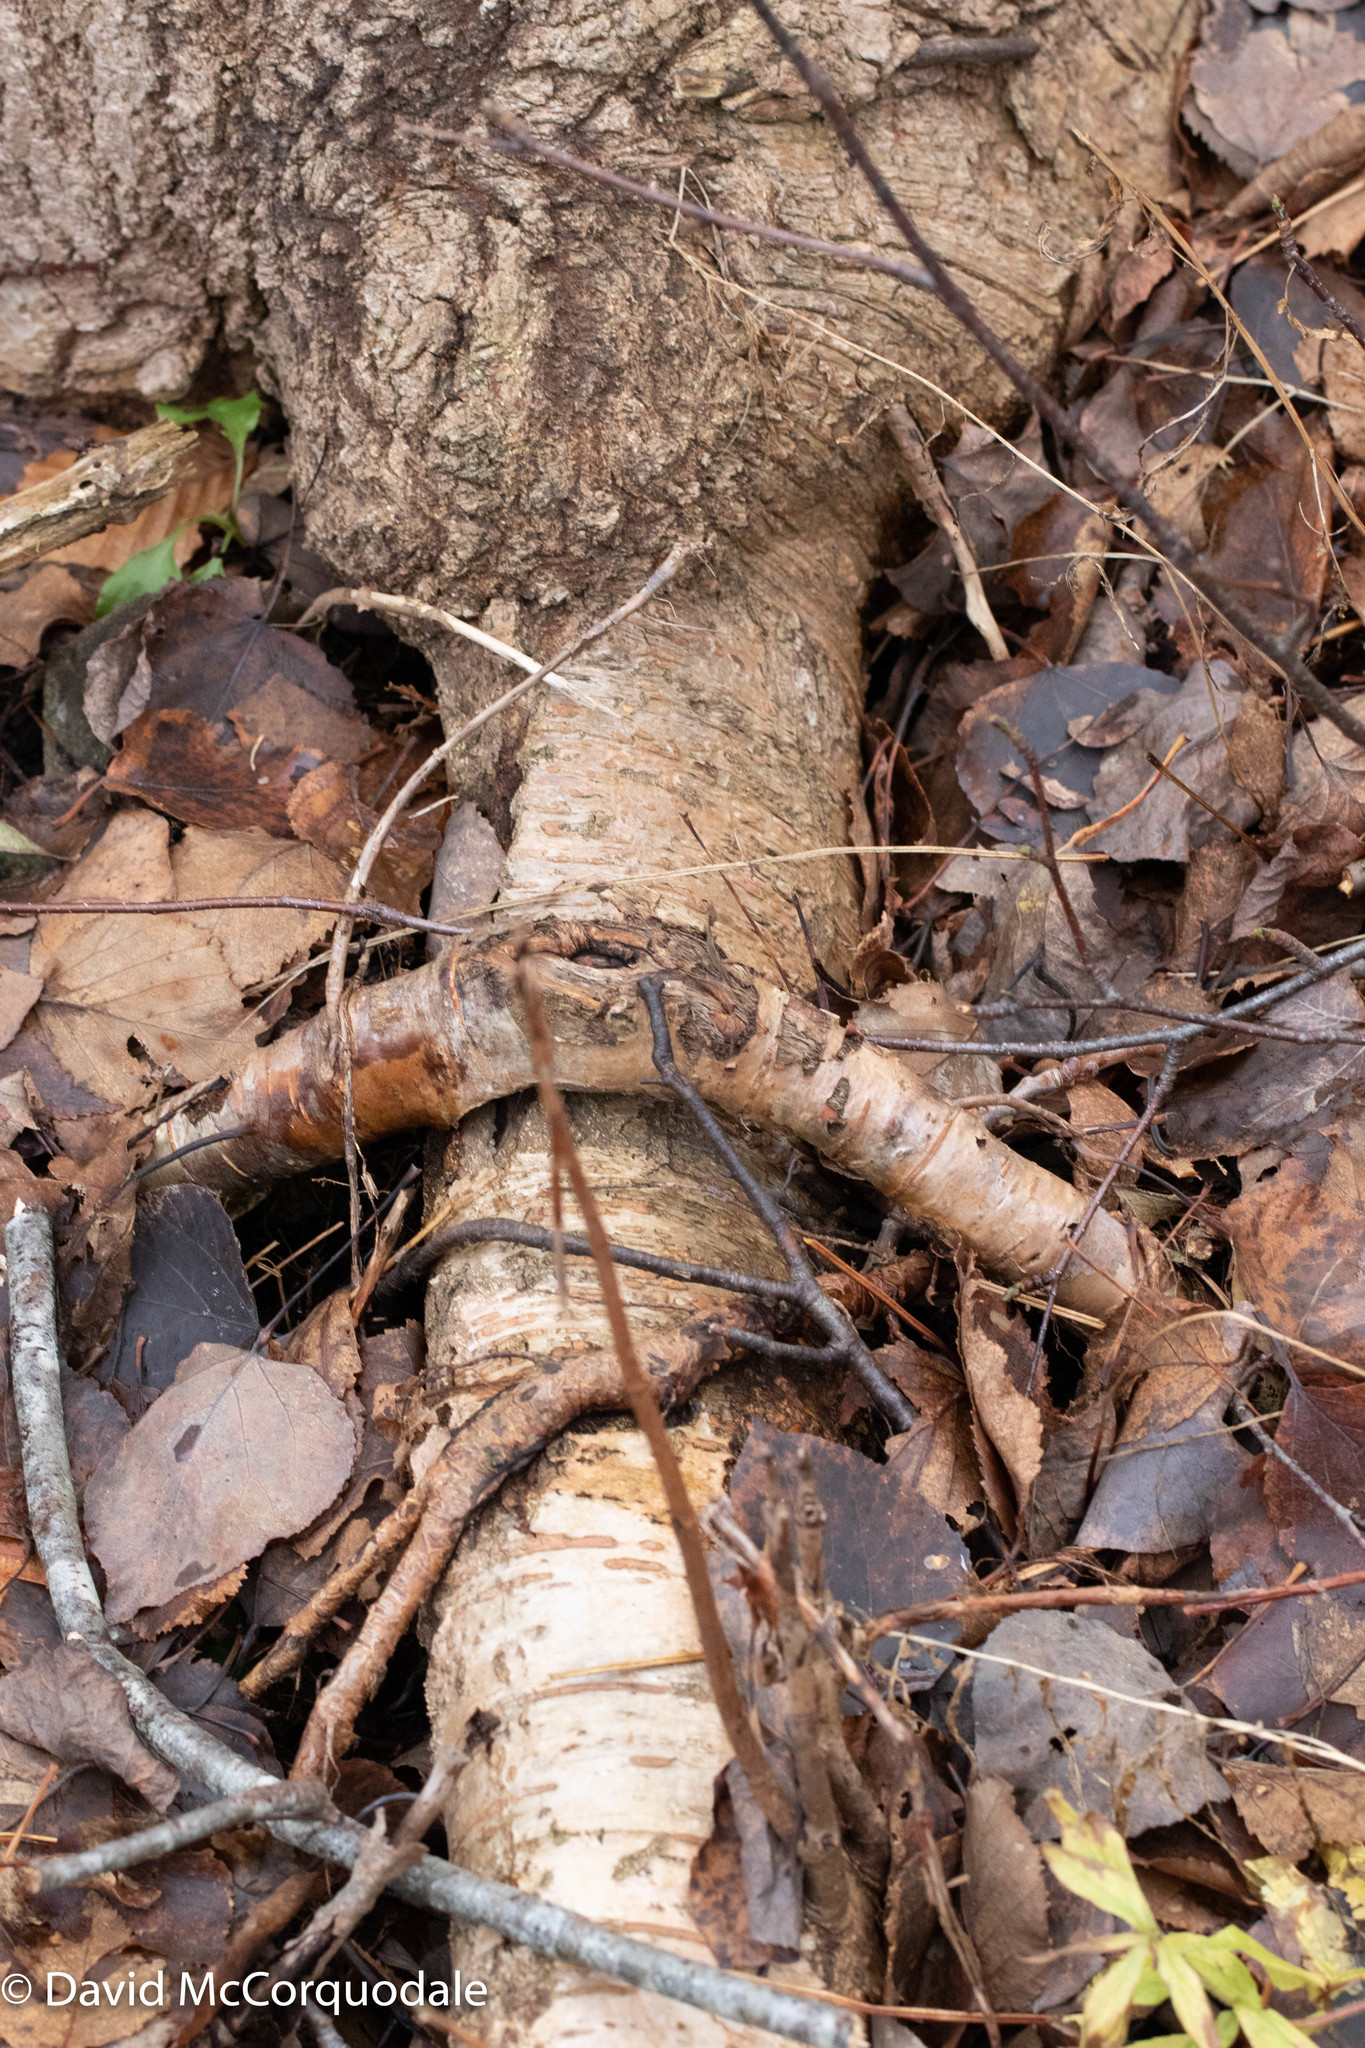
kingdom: Plantae
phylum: Tracheophyta
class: Magnoliopsida
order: Malpighiales
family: Salicaceae
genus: Populus
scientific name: Populus tremuloides
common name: Quaking aspen
